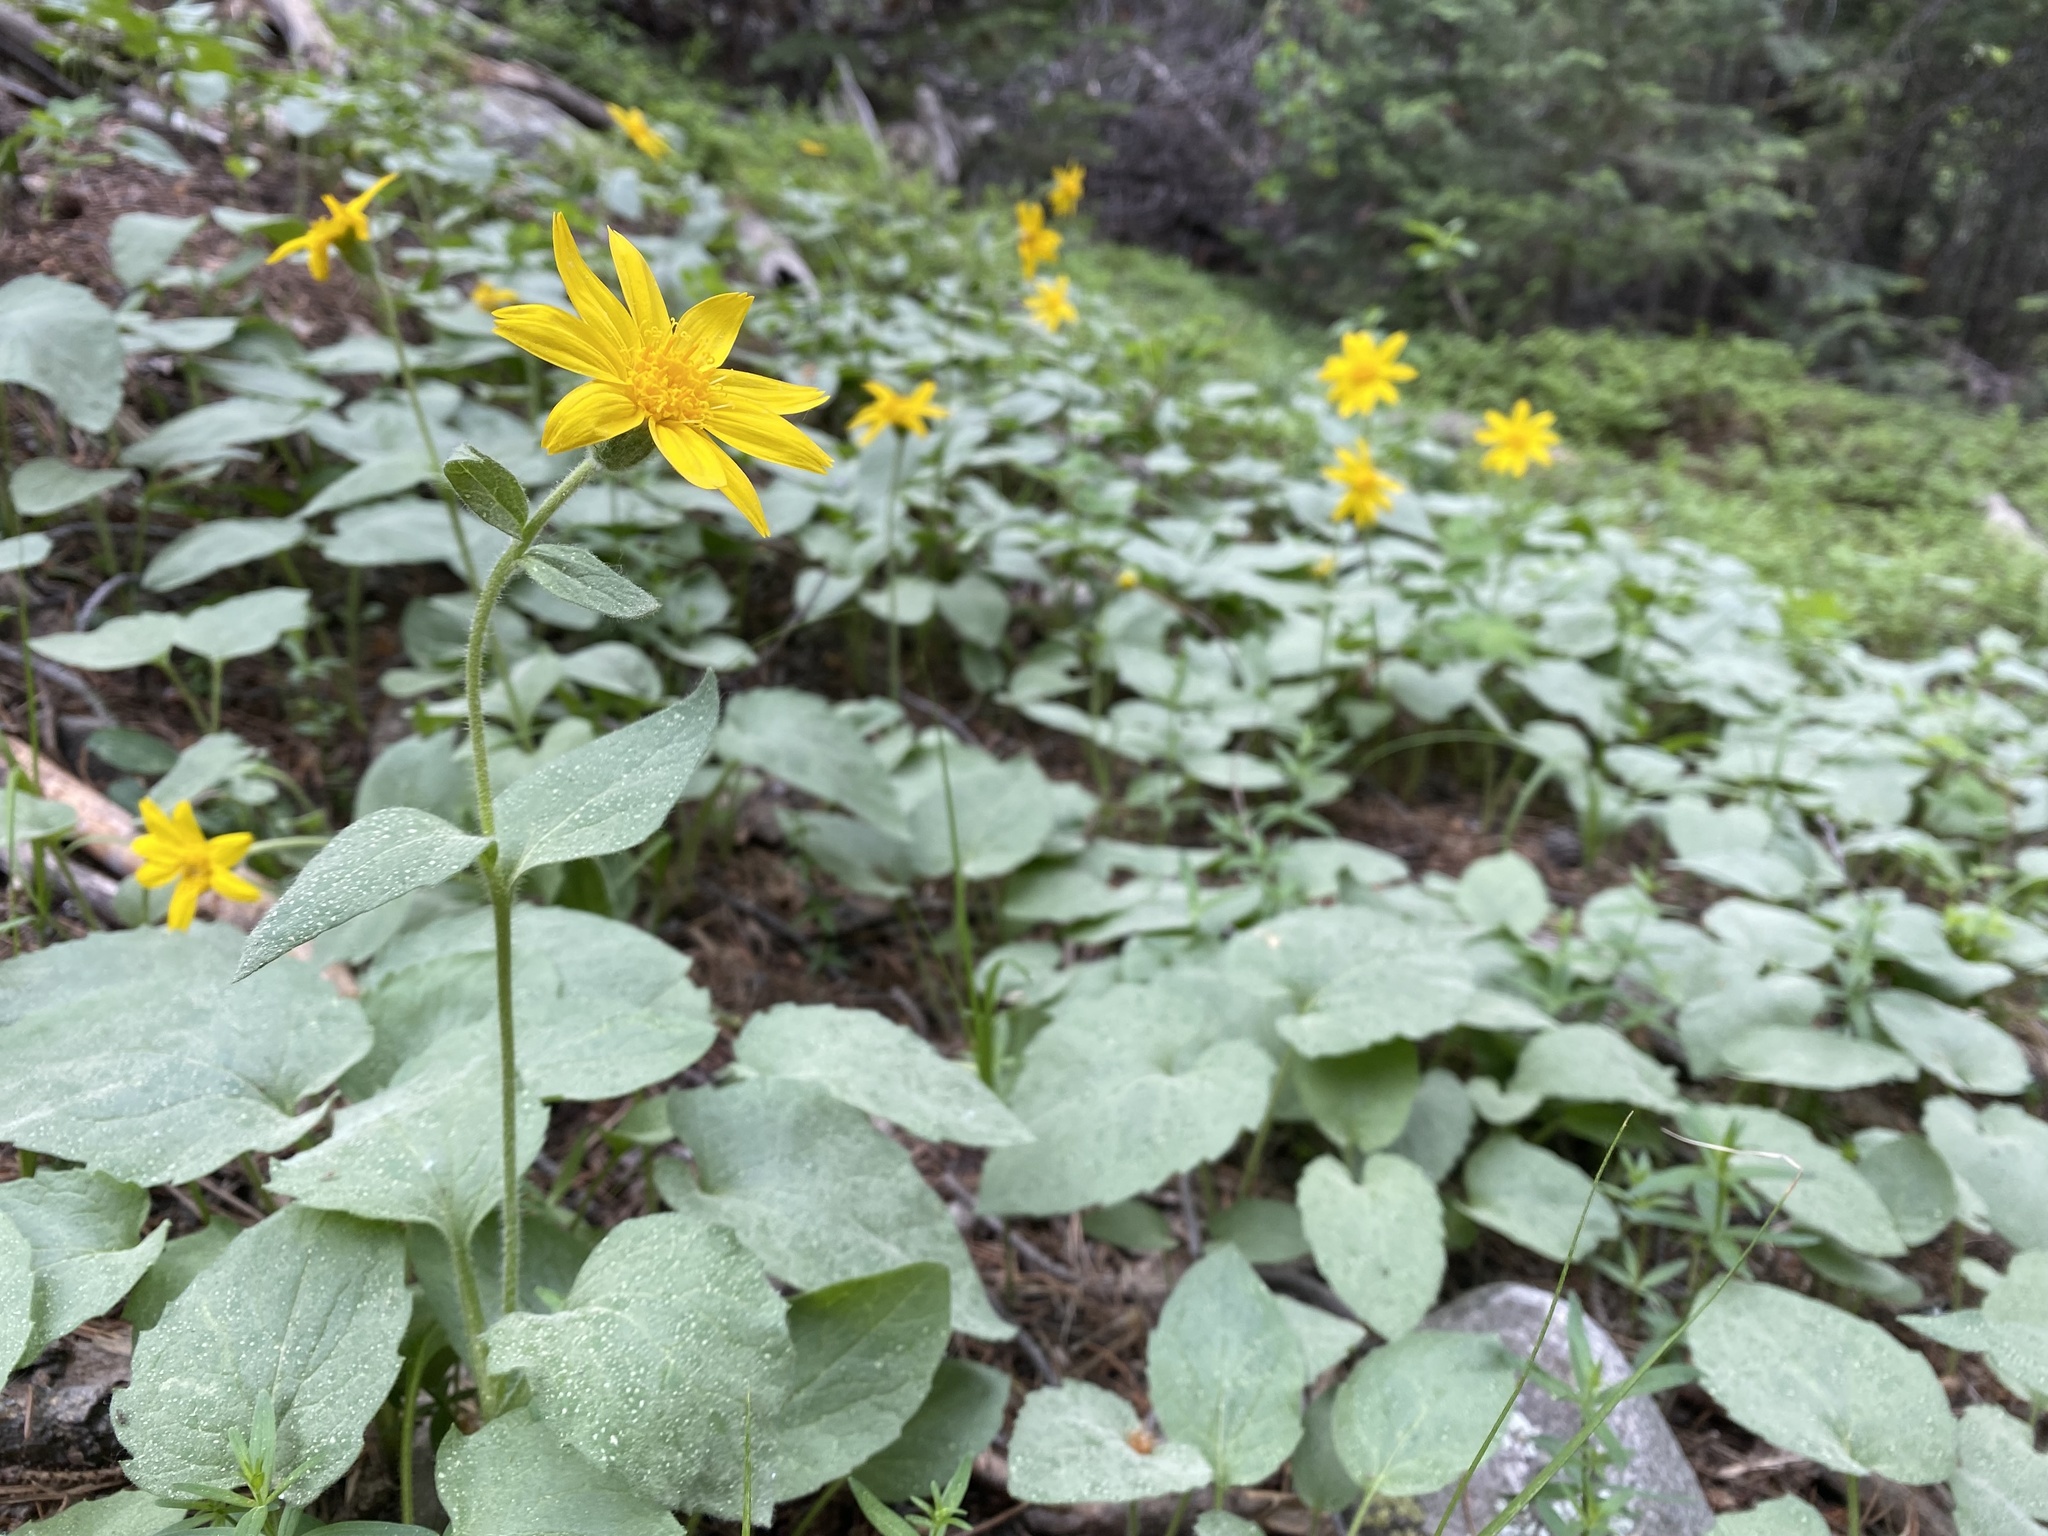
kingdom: Plantae
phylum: Tracheophyta
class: Magnoliopsida
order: Asterales
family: Asteraceae
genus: Arnica
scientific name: Arnica cordifolia
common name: Heart-leaf arnica
